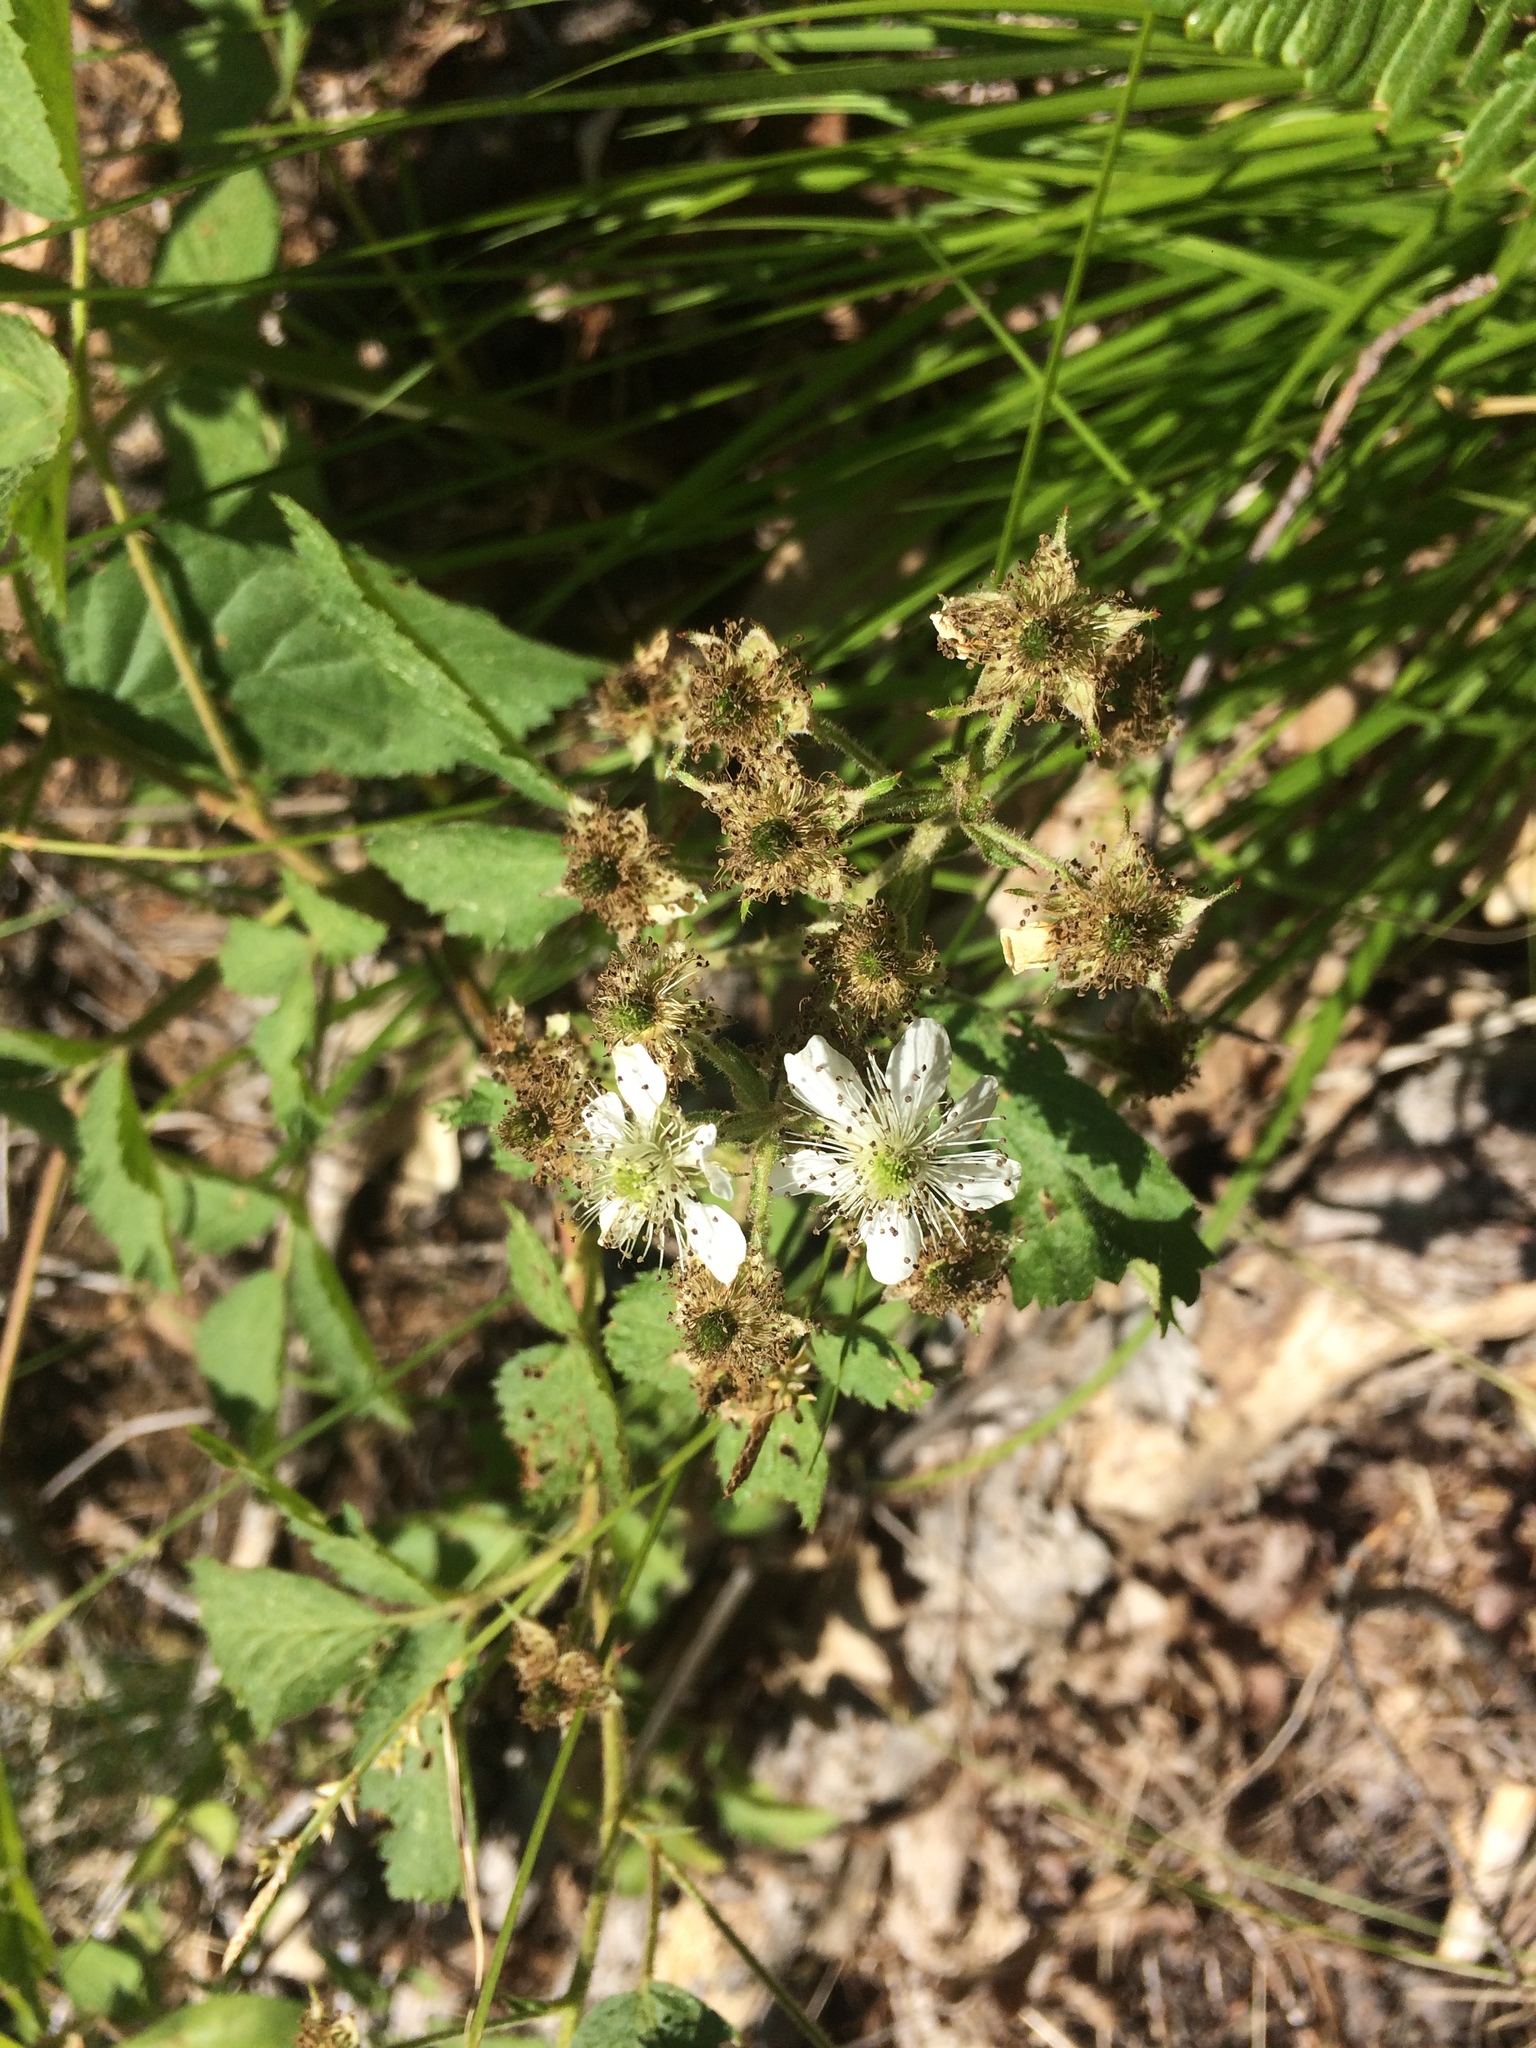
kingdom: Plantae
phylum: Tracheophyta
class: Magnoliopsida
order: Rosales
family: Rosaceae
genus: Rubus
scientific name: Rubus allegheniensis
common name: Allegheny blackberry
